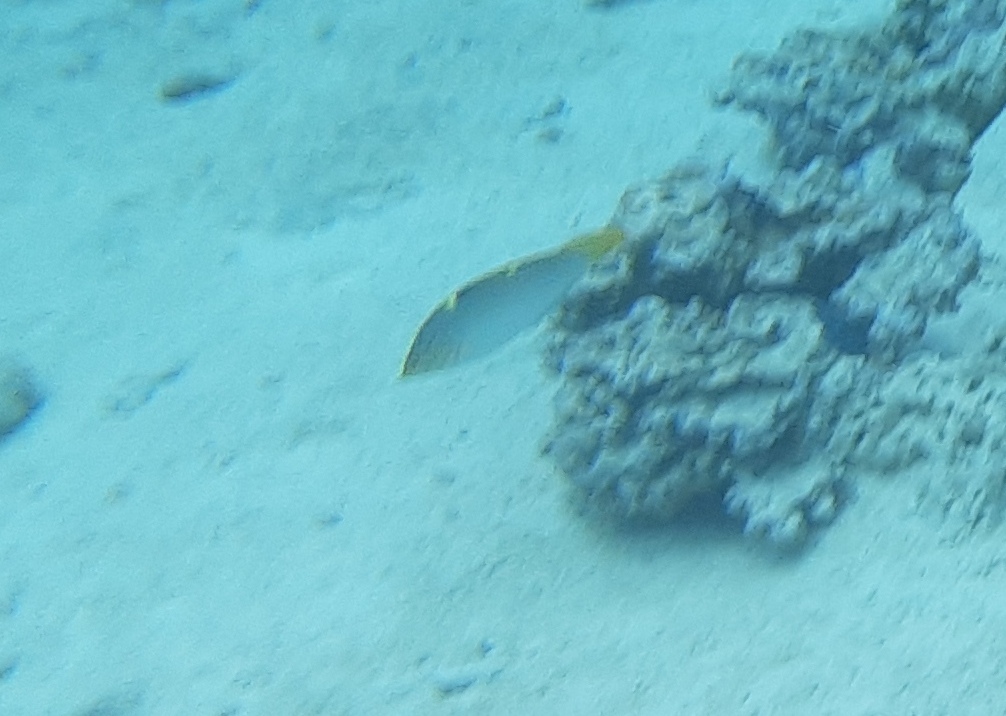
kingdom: Animalia
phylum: Chordata
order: Perciformes
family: Labridae
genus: Halichoeres
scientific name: Halichoeres hortulanus
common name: Checkerboard wrasse
